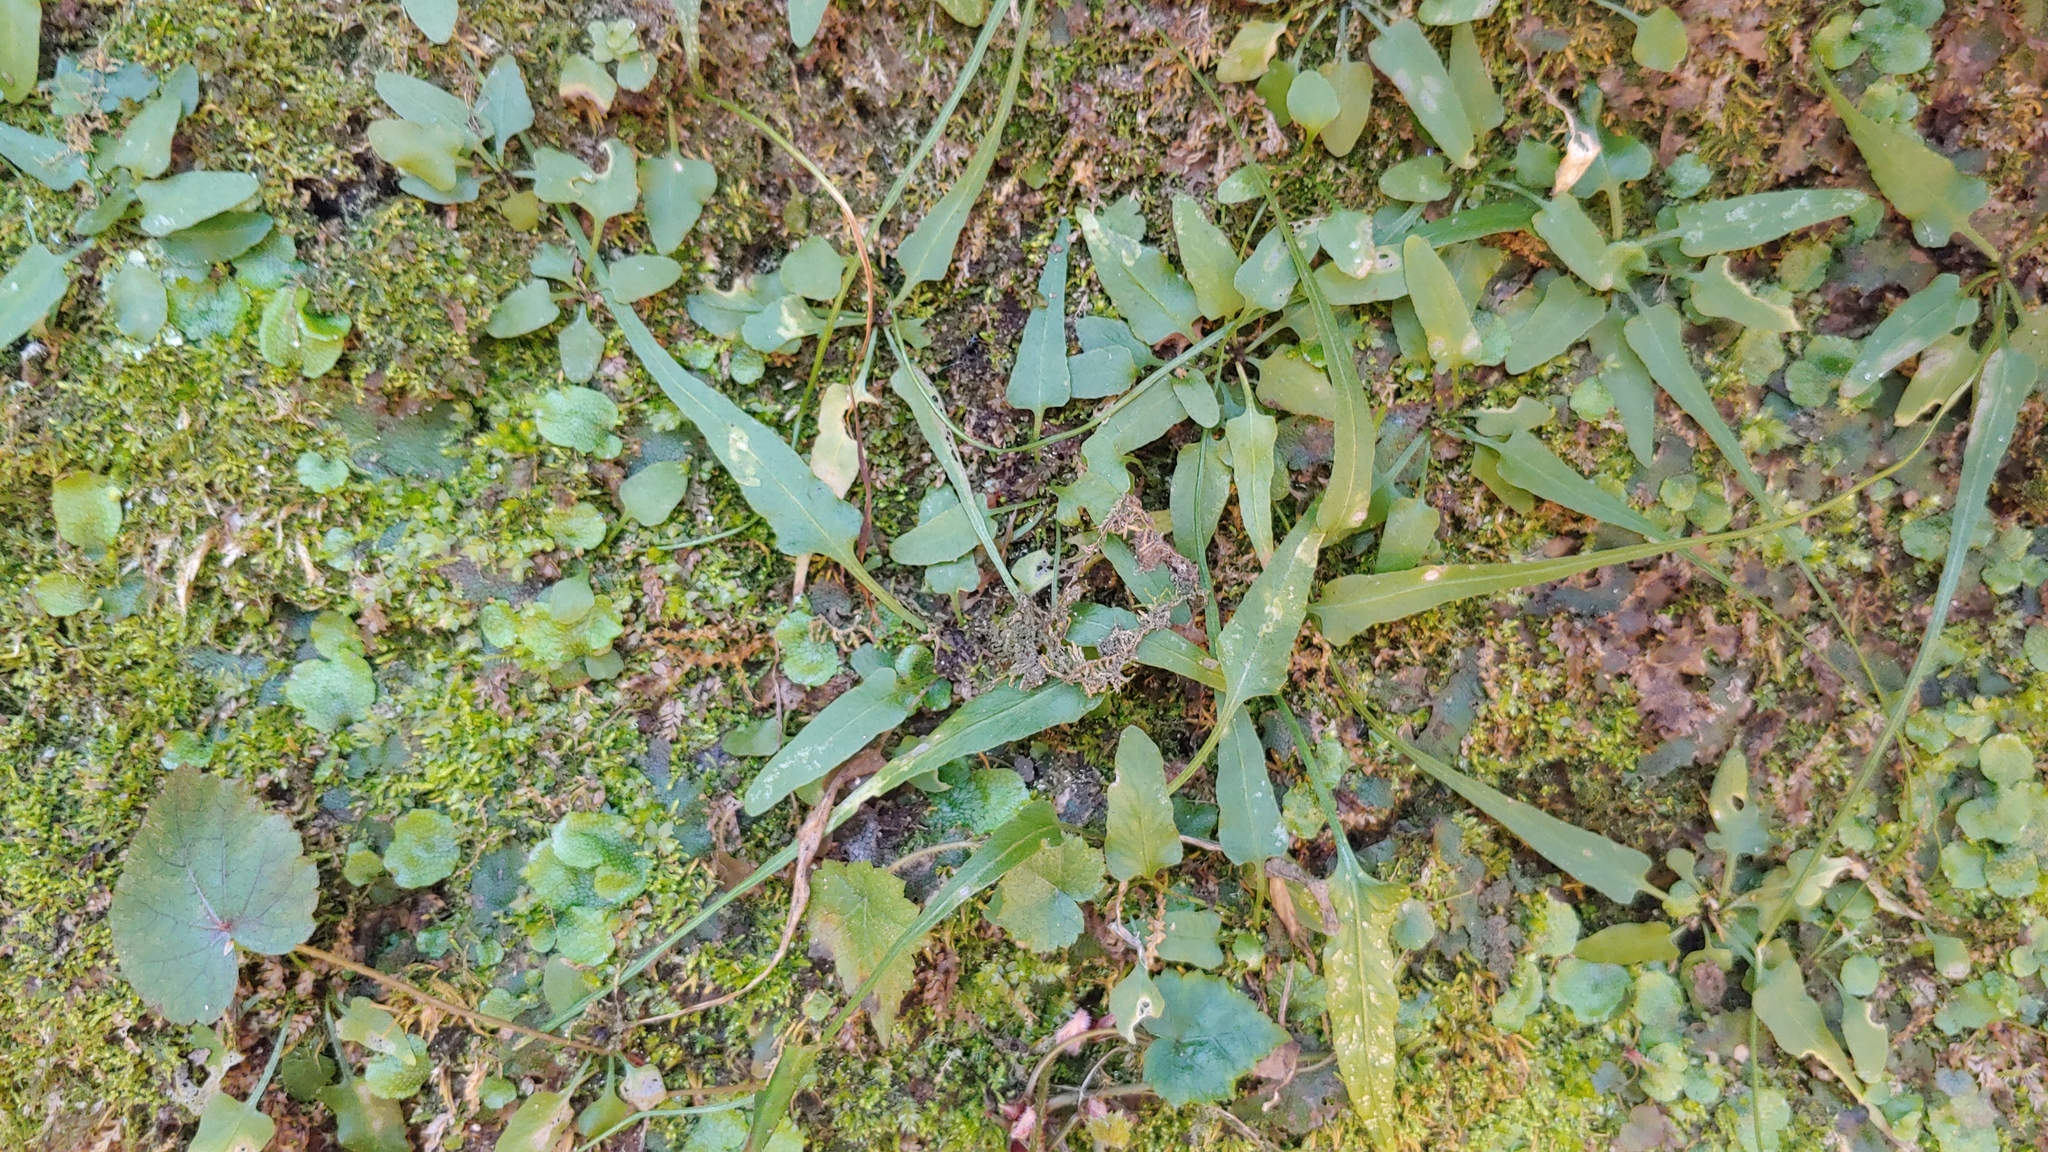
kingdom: Plantae
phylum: Tracheophyta
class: Polypodiopsida
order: Polypodiales
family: Aspleniaceae
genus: Asplenium
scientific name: Asplenium rhizophyllum
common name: Walking fern
